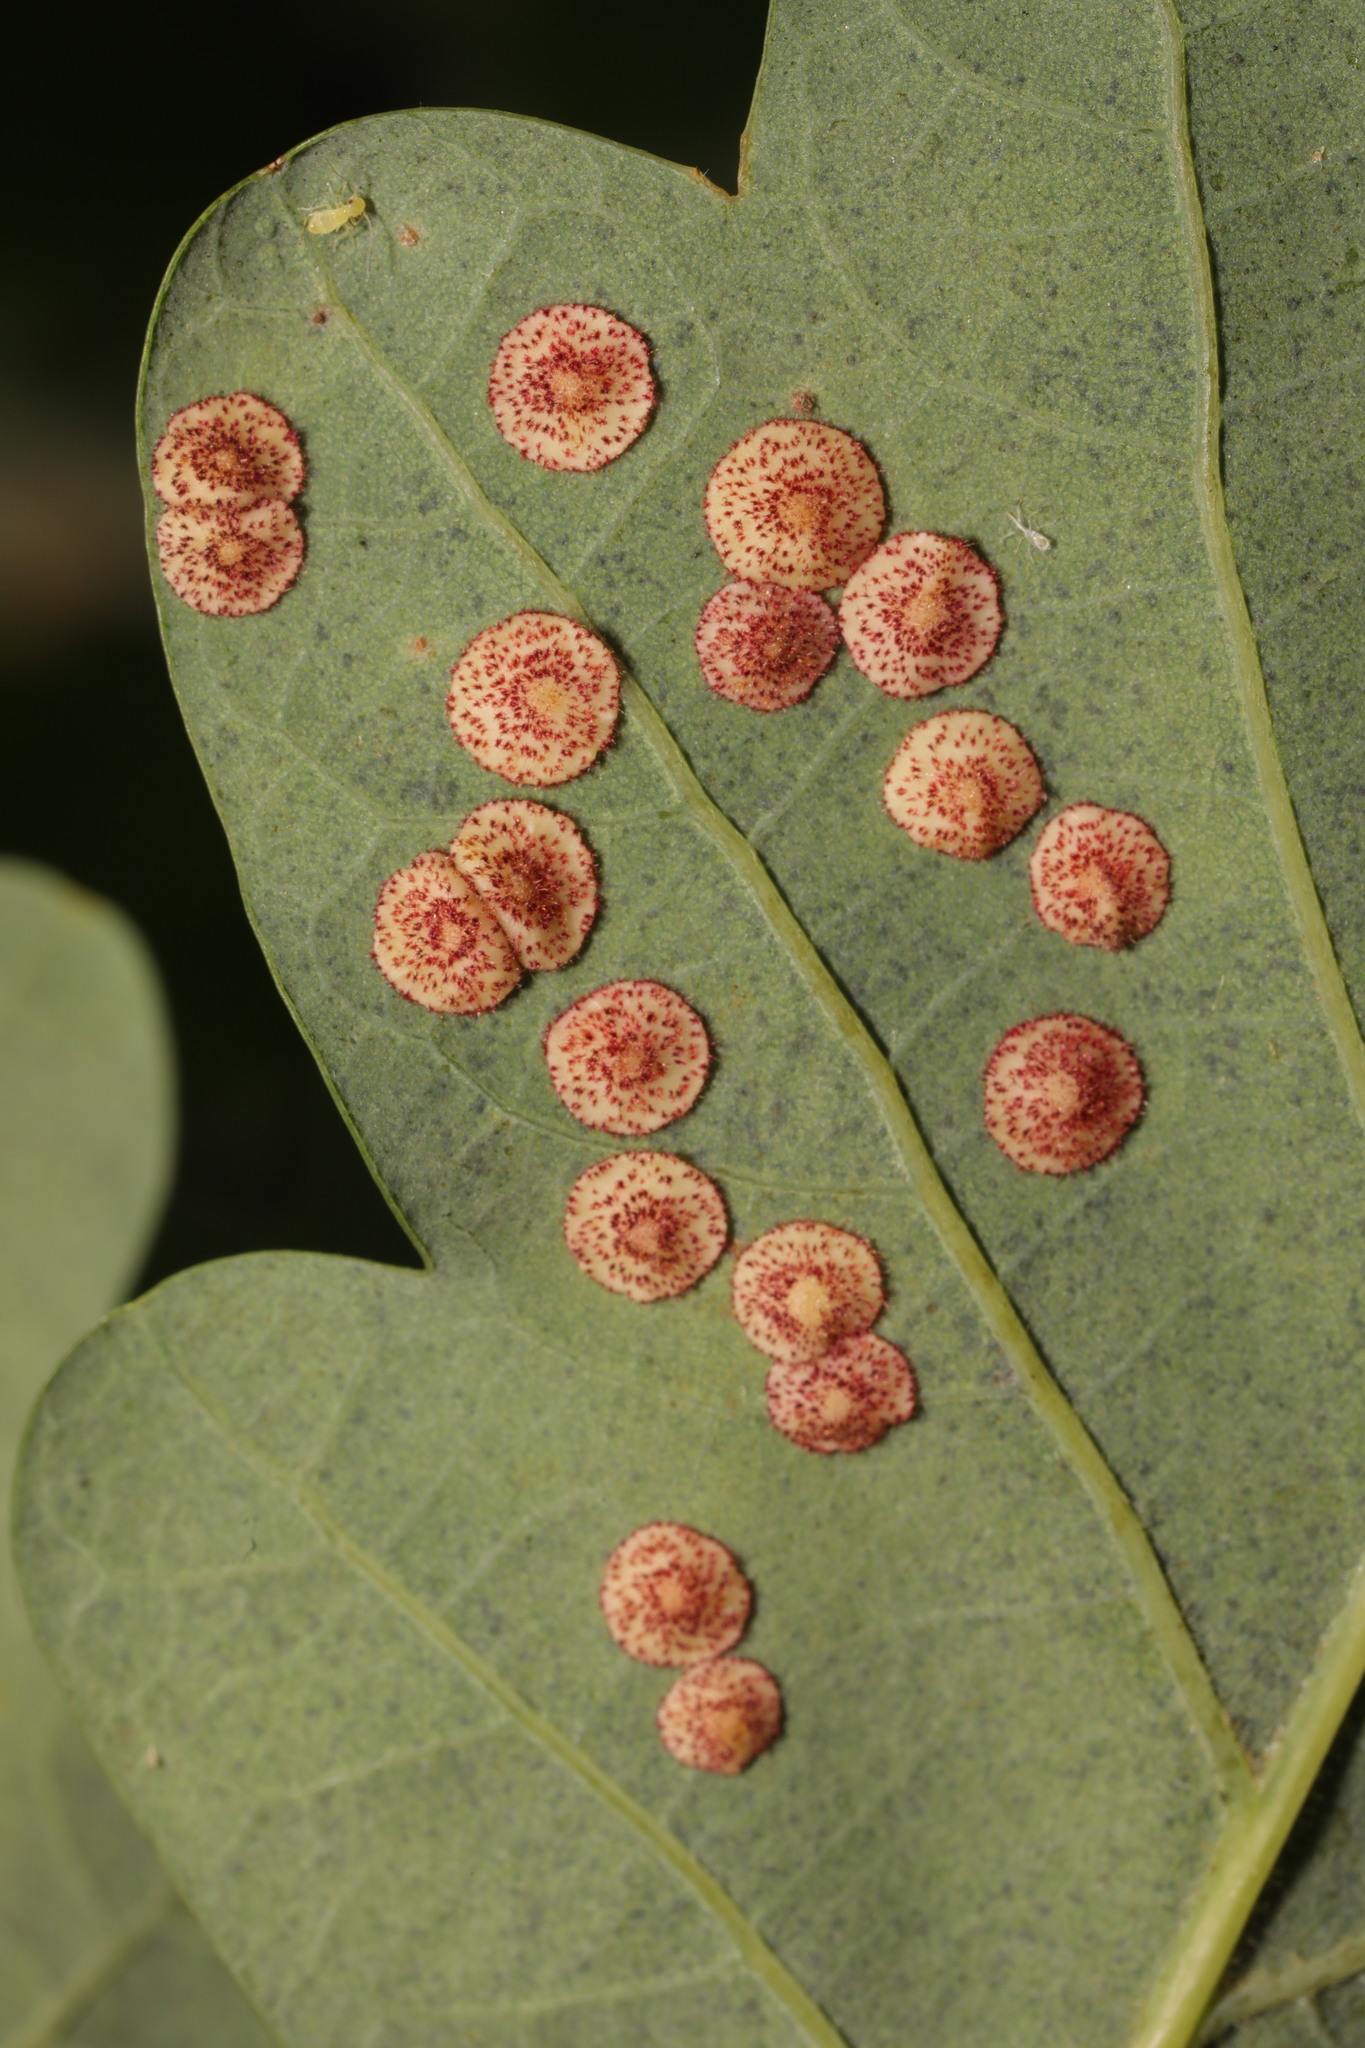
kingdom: Animalia
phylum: Arthropoda
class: Insecta
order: Hymenoptera
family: Cynipidae
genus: Neuroterus
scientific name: Neuroterus quercusbaccarum
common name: Common spangle gall
